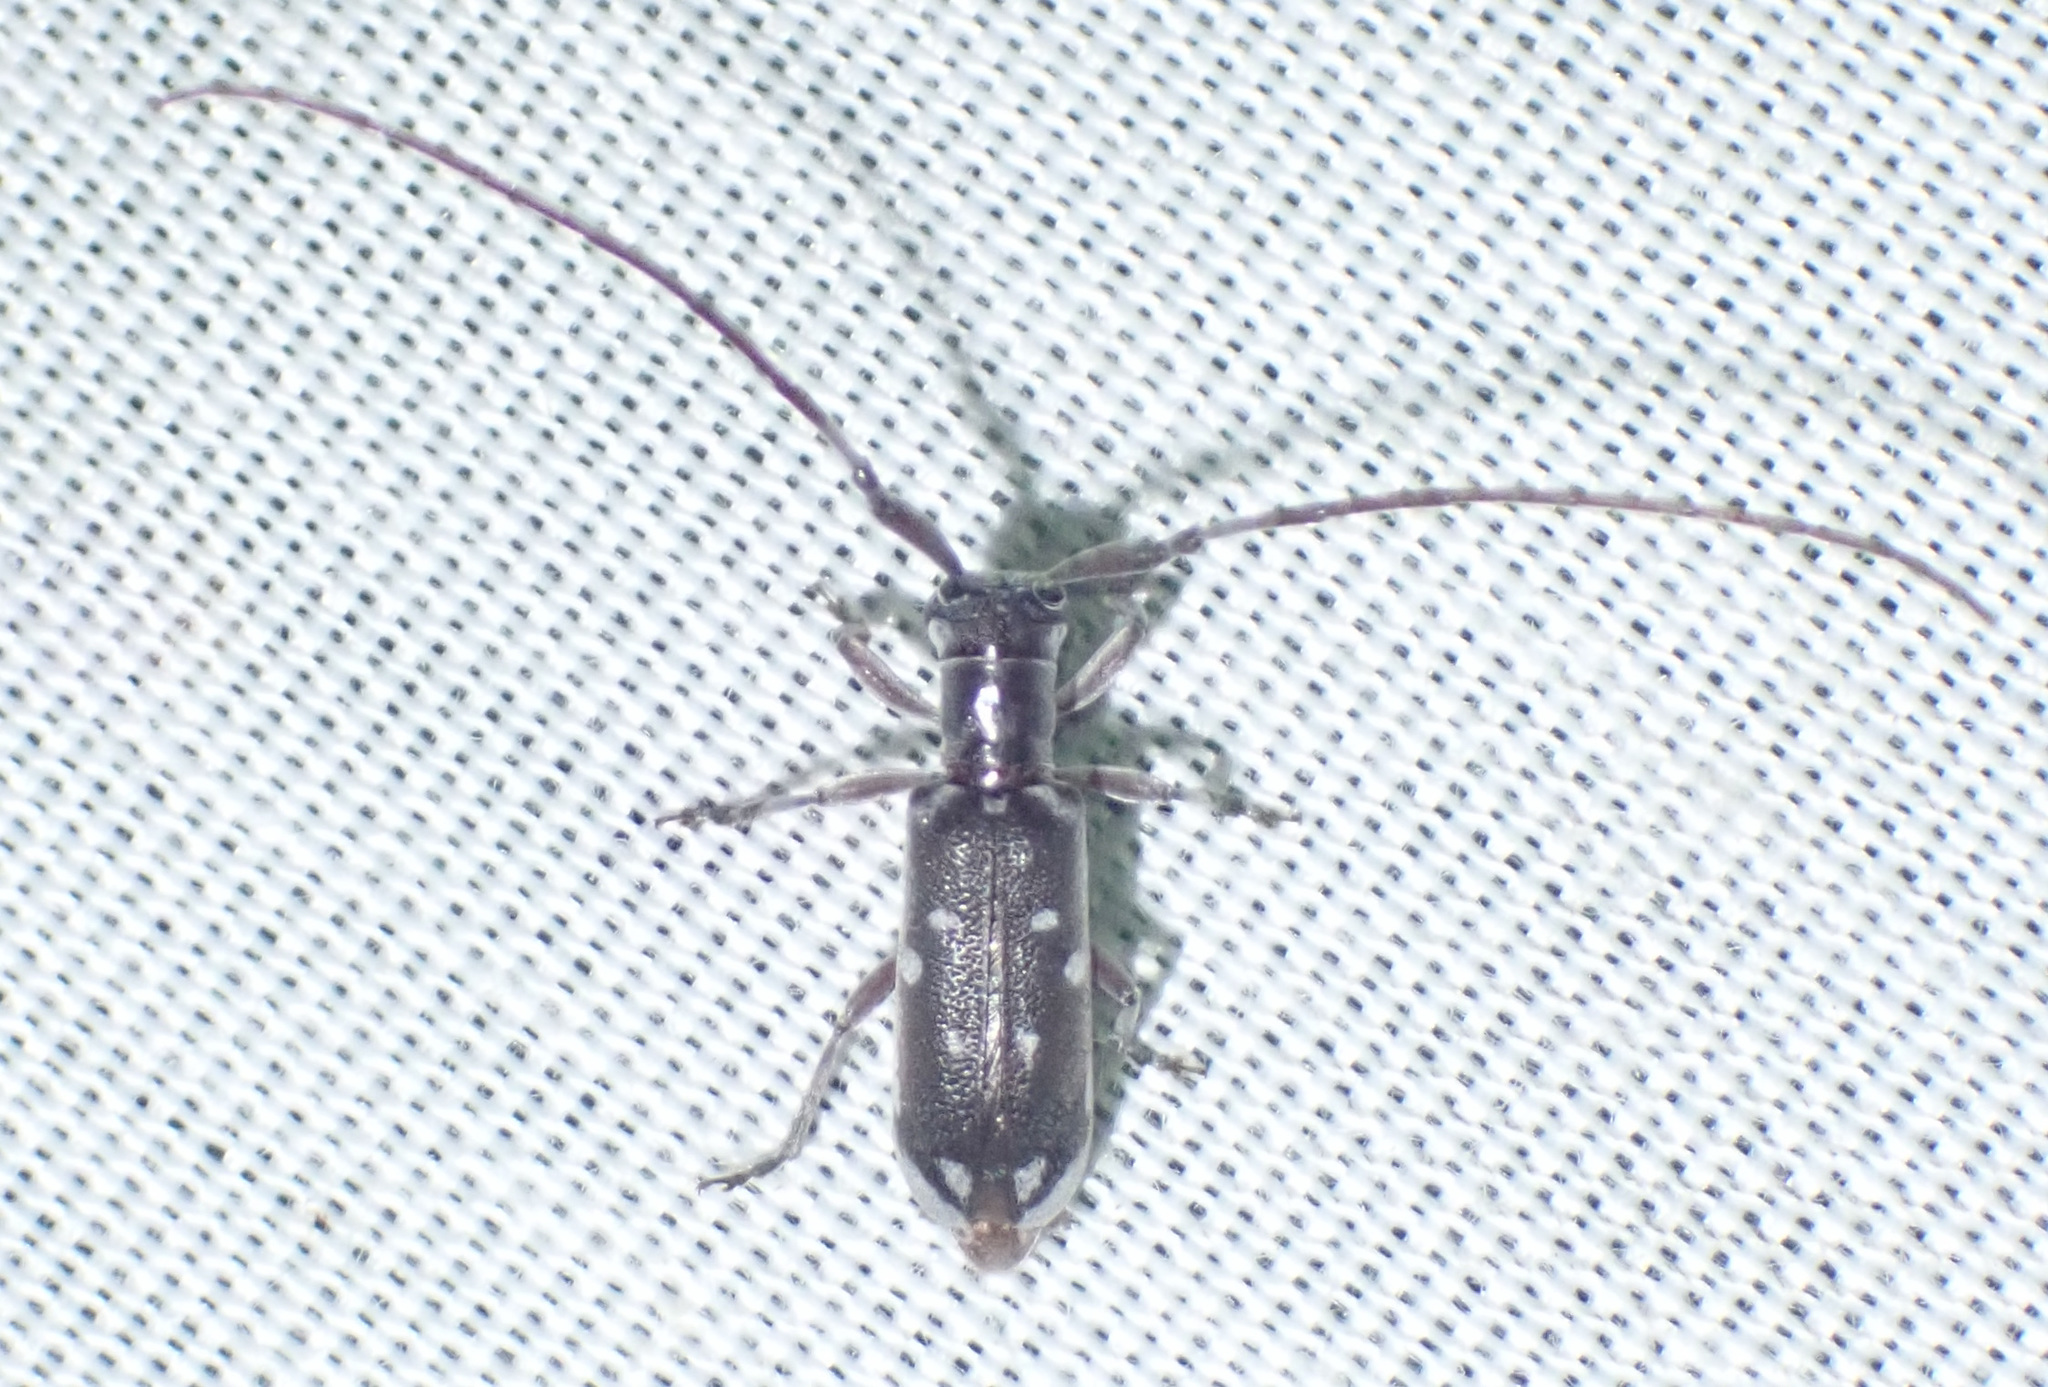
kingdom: Animalia
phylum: Arthropoda
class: Insecta
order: Coleoptera
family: Cerambycidae
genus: Eunidia
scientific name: Eunidia thomseni
